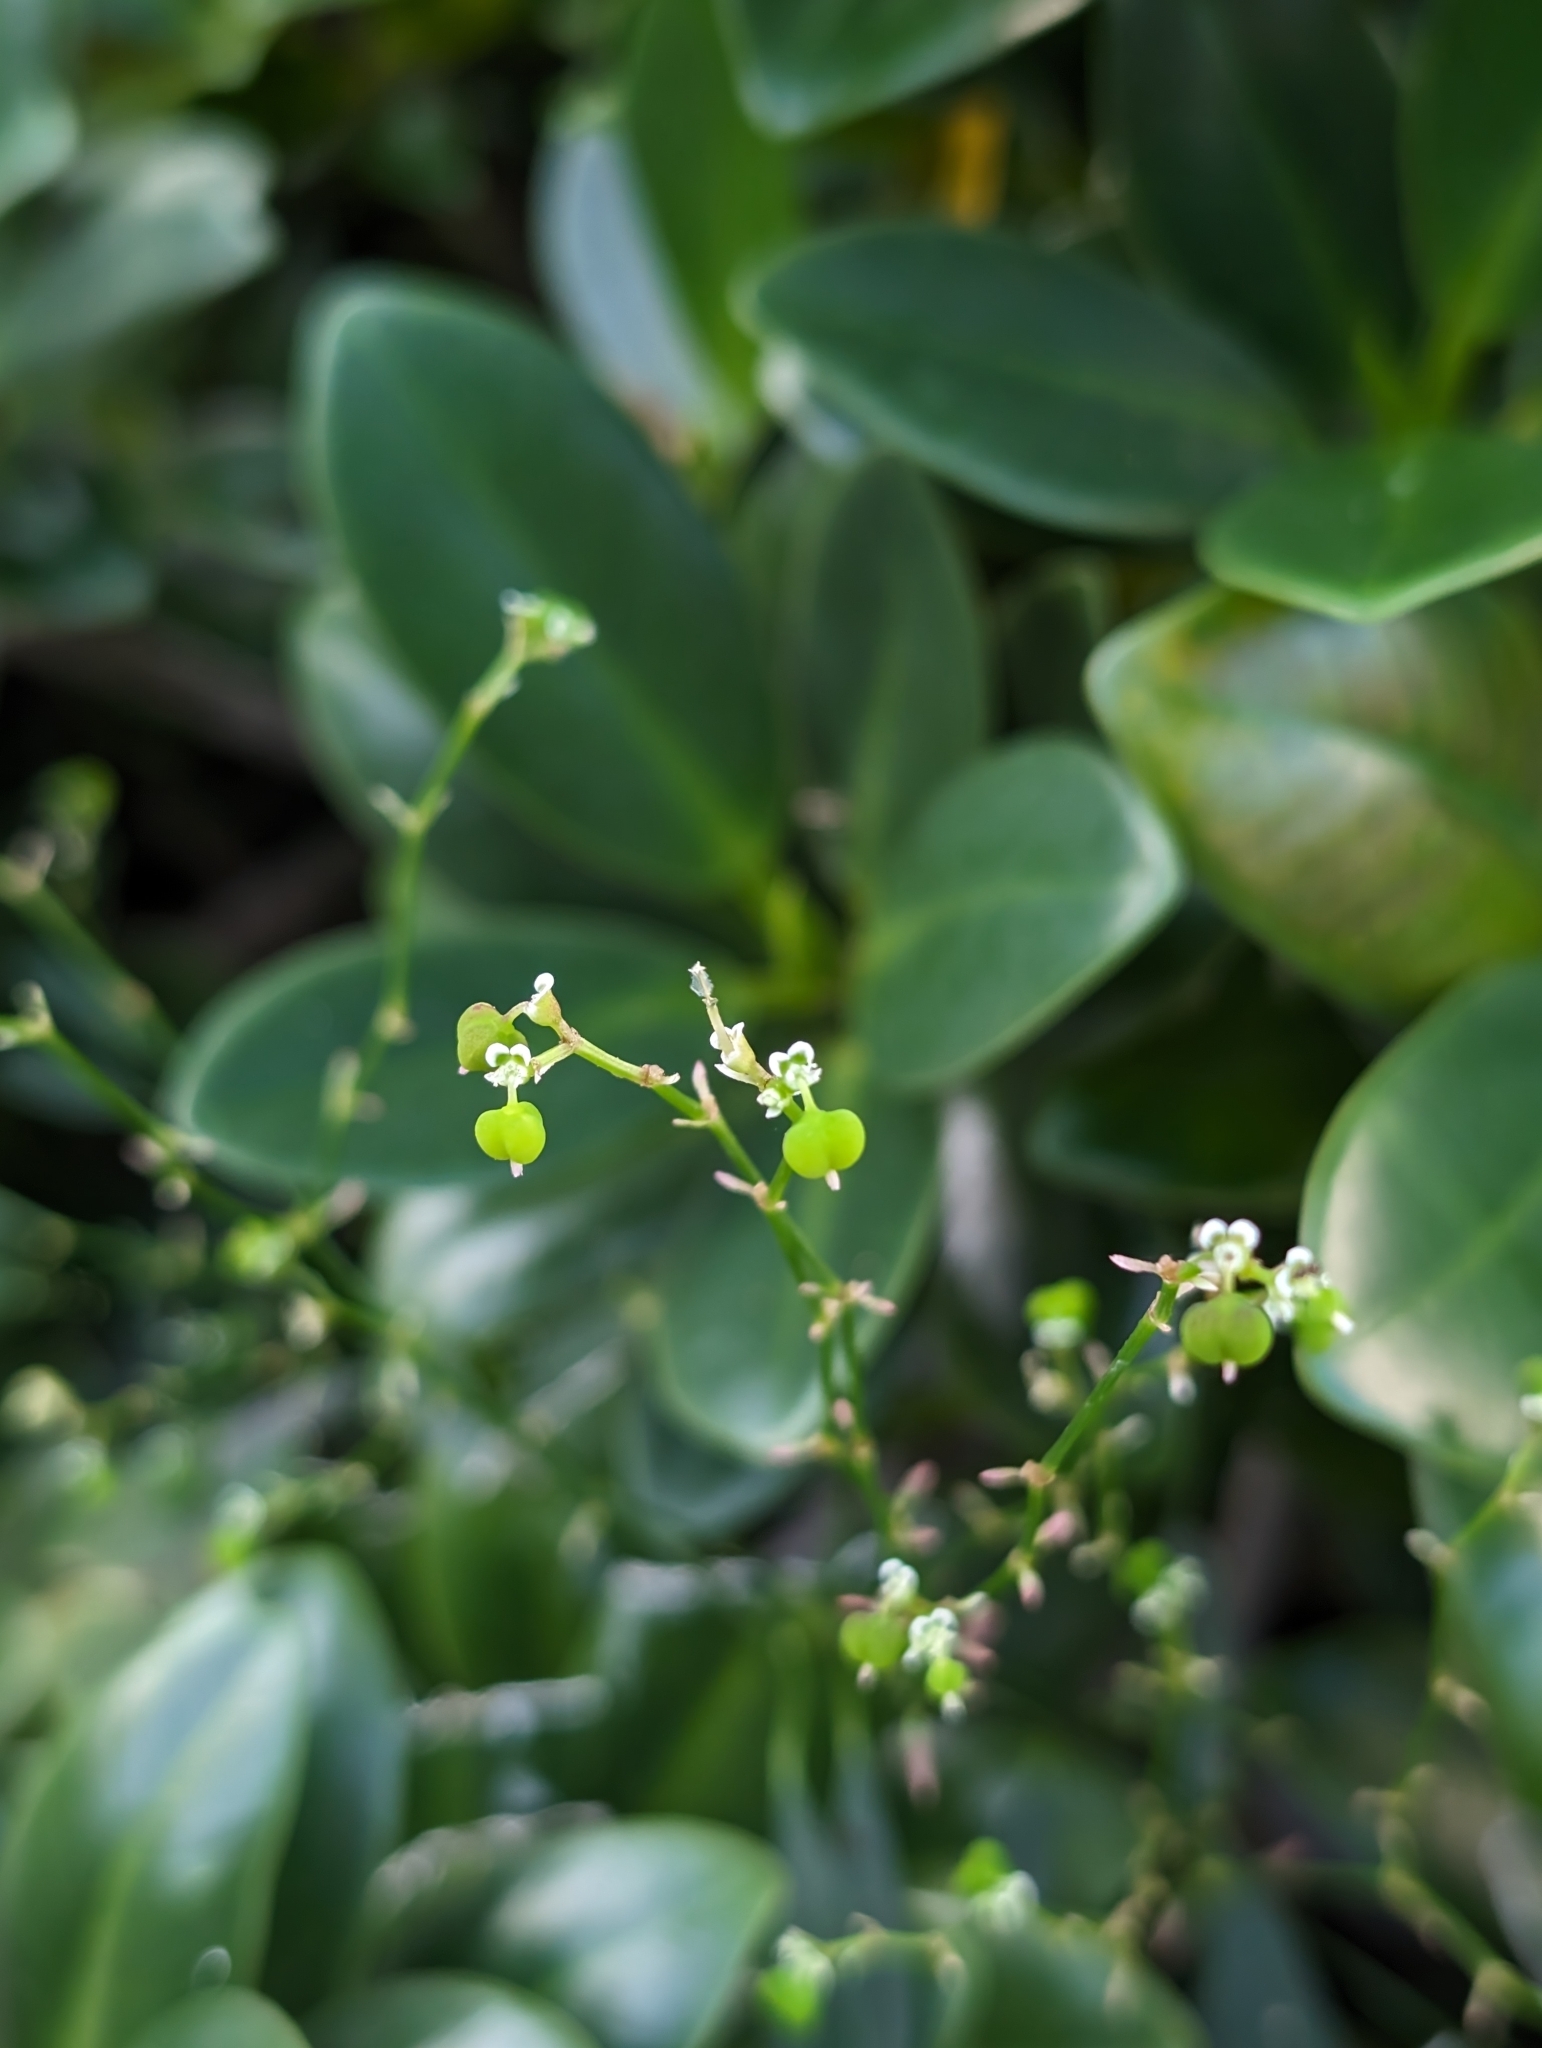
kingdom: Plantae
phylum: Tracheophyta
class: Magnoliopsida
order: Malpighiales
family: Euphorbiaceae
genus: Euphorbia
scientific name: Euphorbia graminea
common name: Grassleaf spurge
